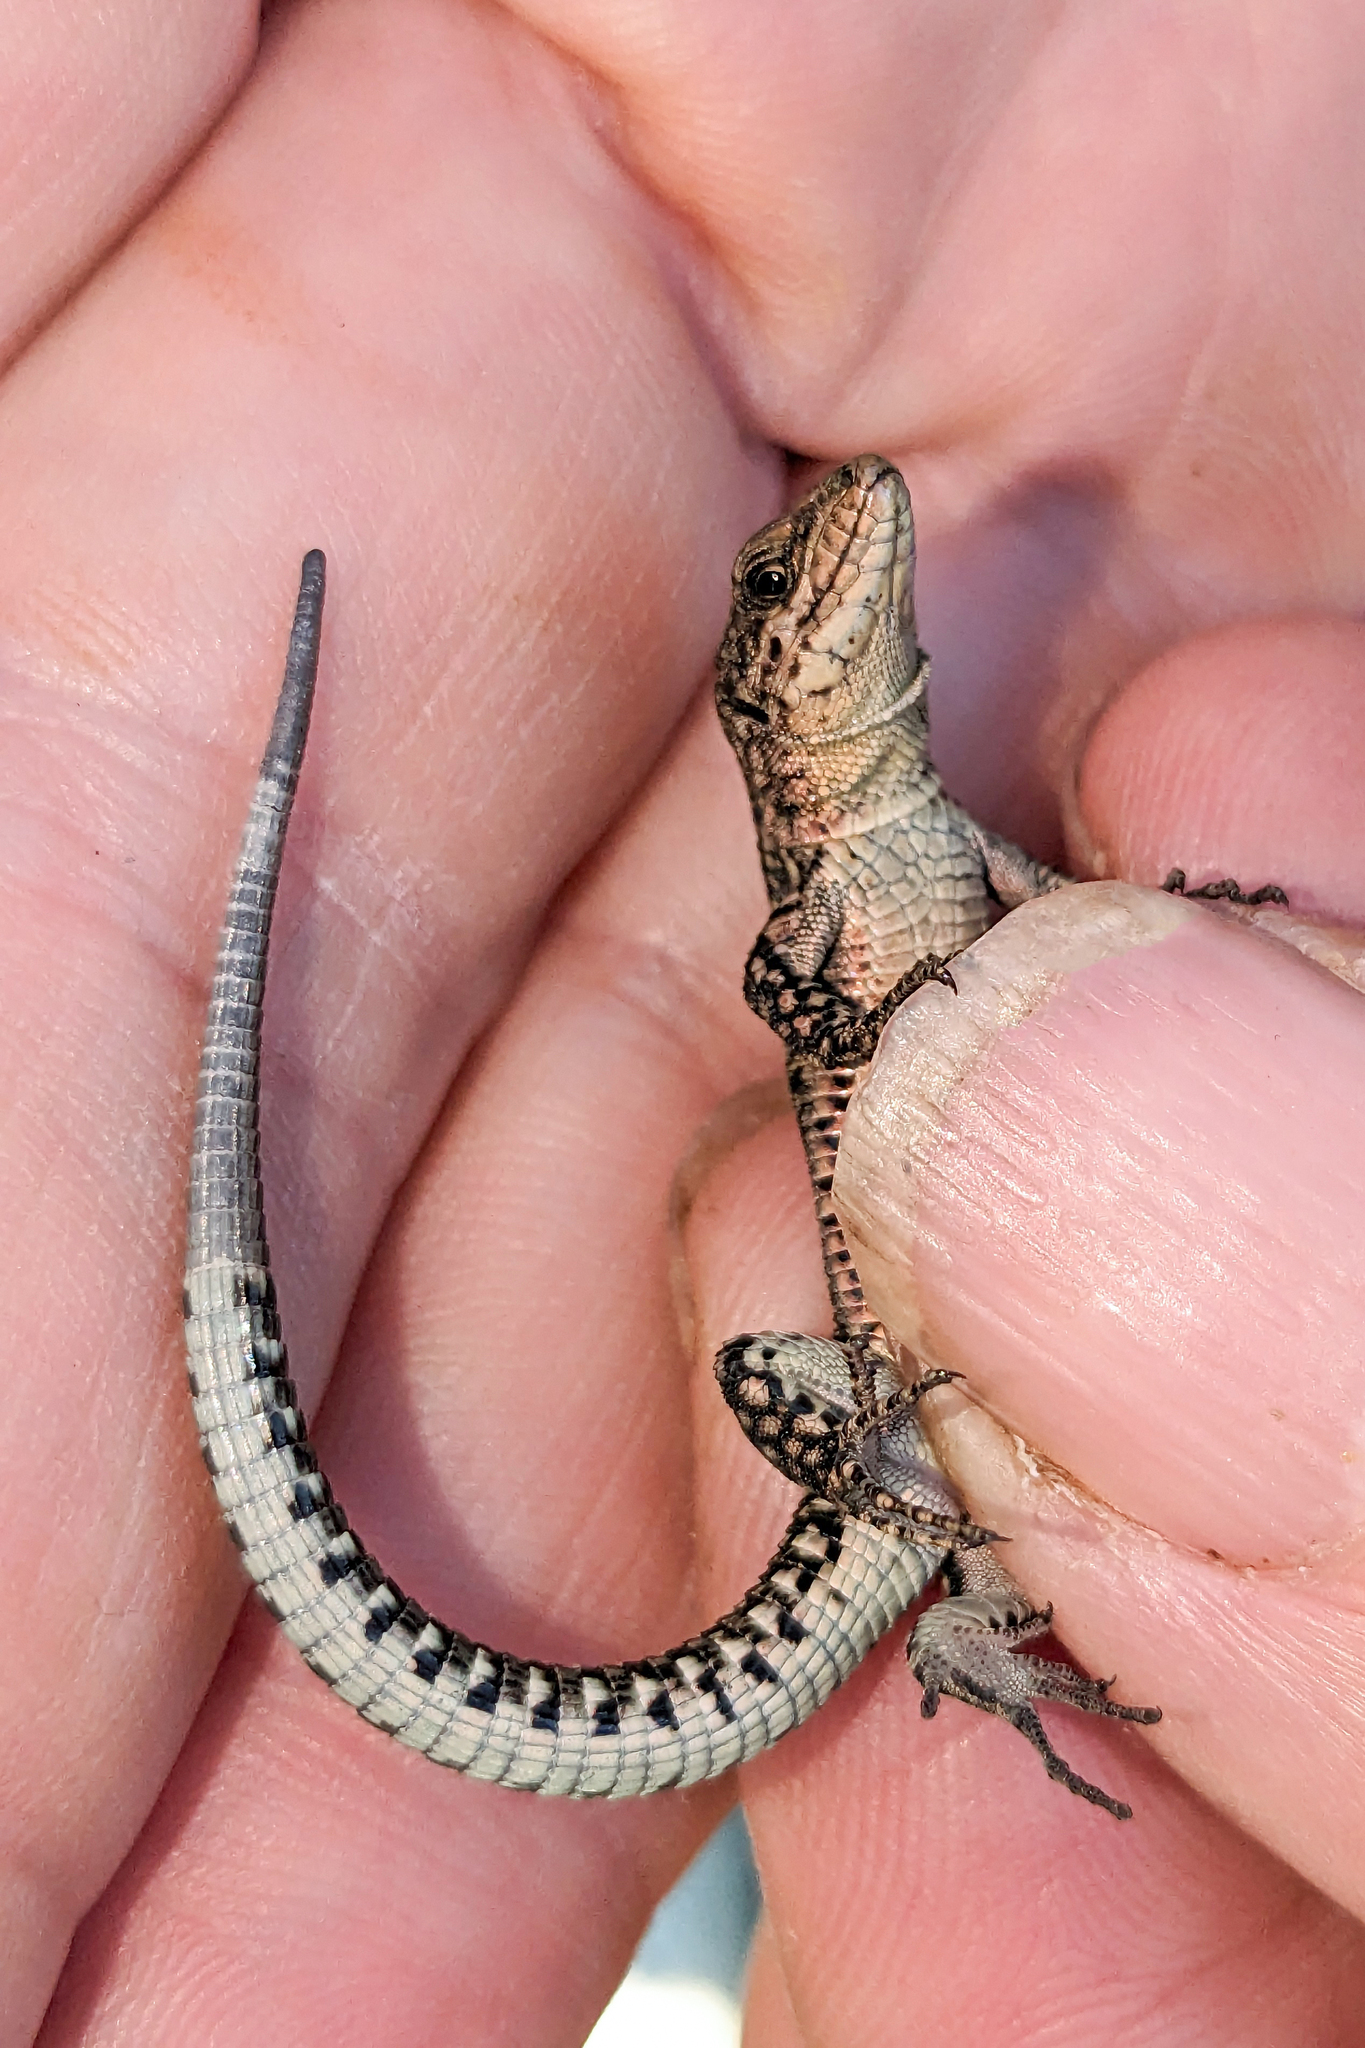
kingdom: Animalia
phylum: Chordata
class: Squamata
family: Lacertidae
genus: Podarcis
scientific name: Podarcis bocagei
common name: Bocage's wall lizard
